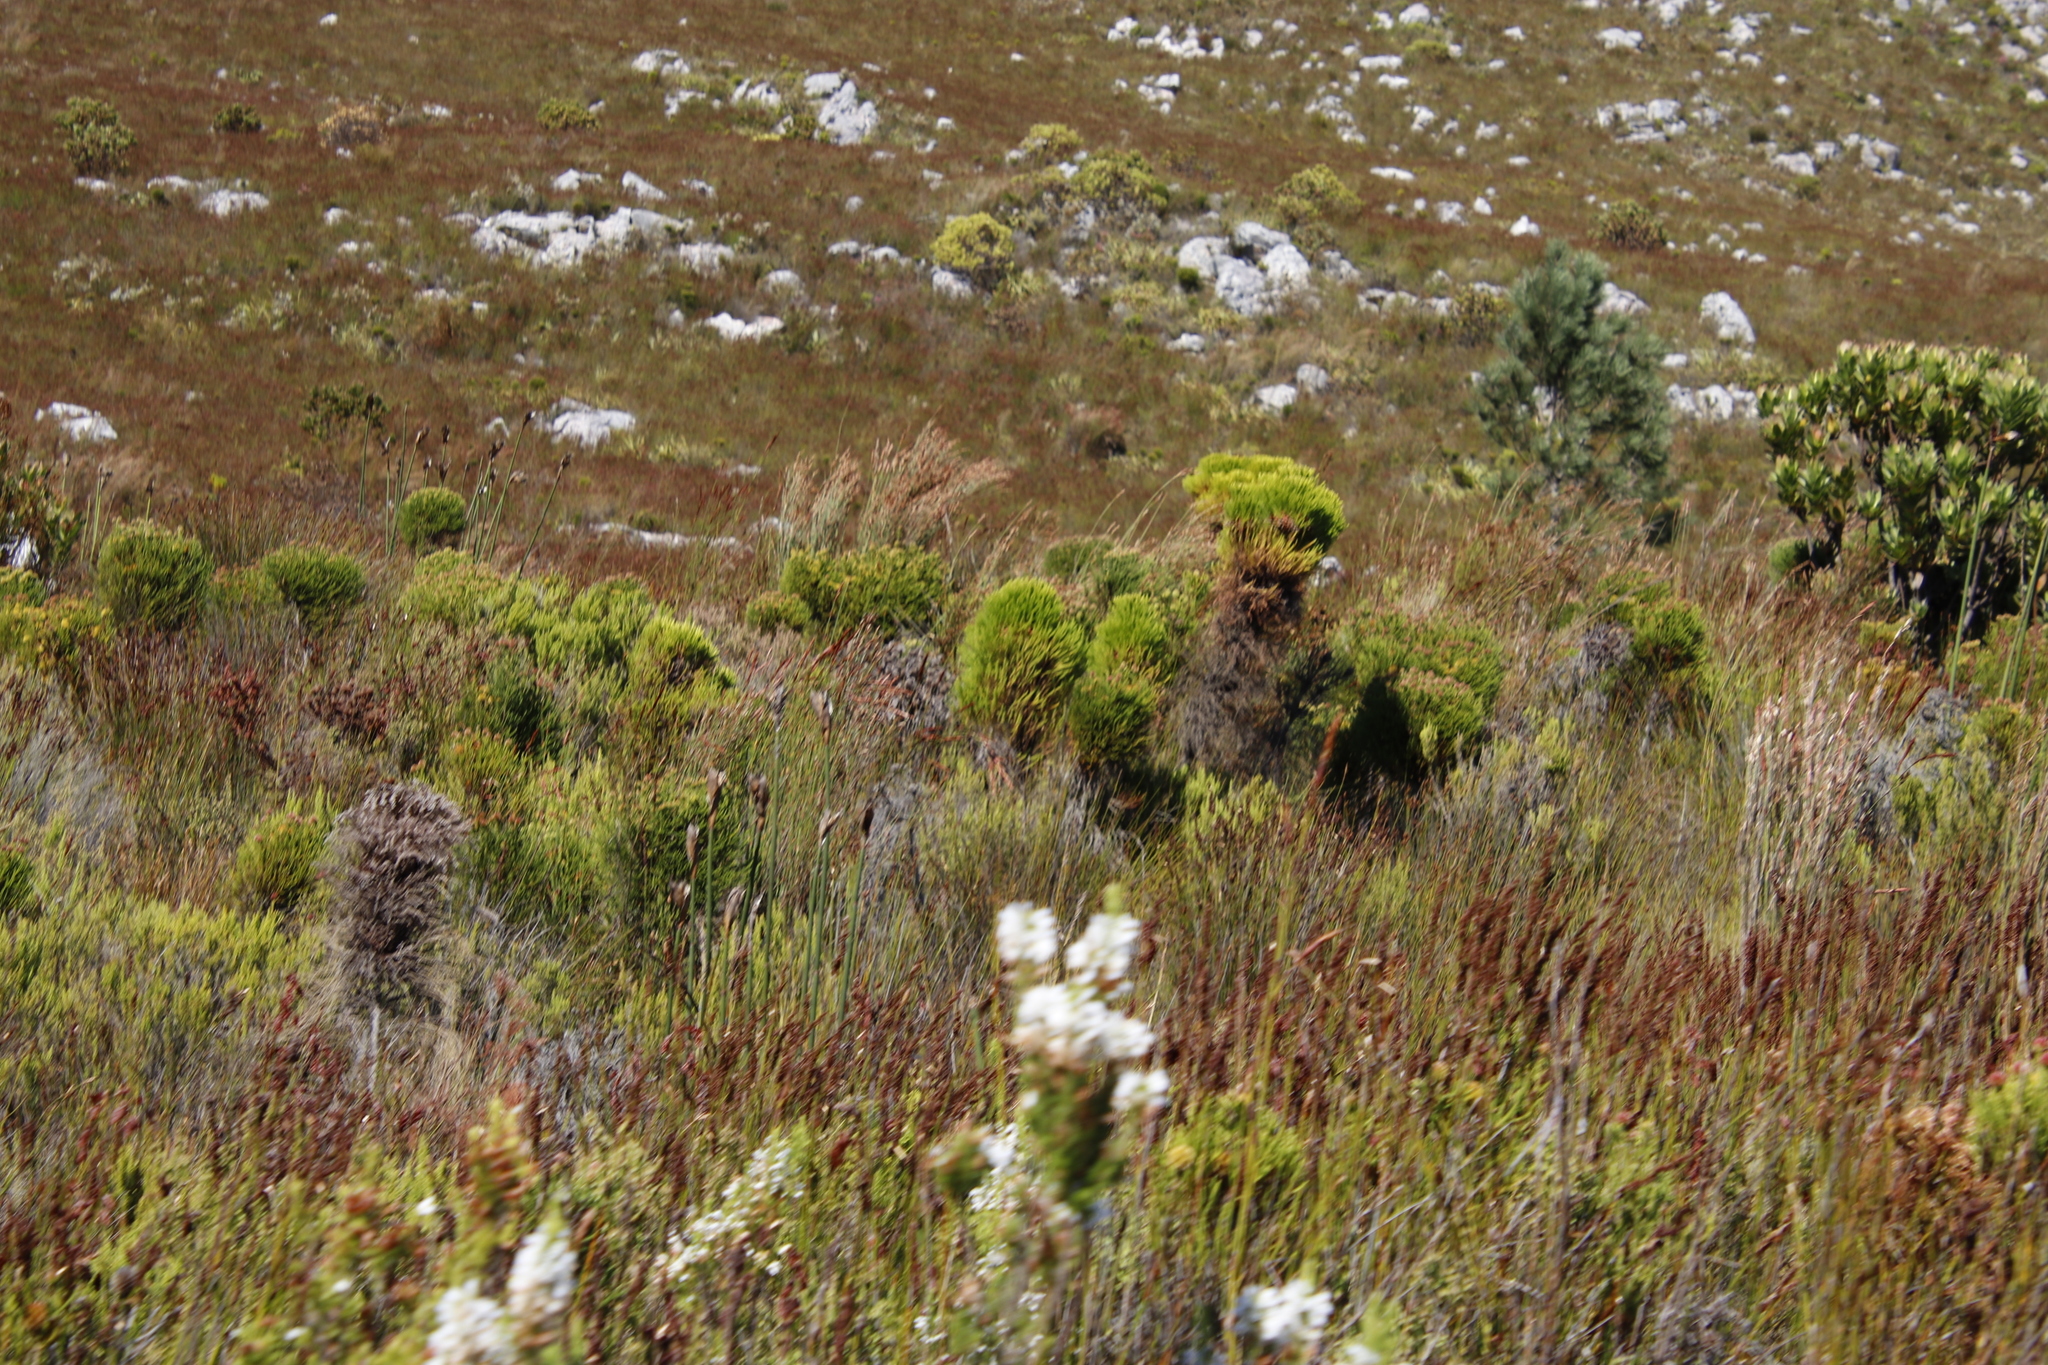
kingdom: Plantae
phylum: Tracheophyta
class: Magnoliopsida
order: Bruniales
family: Bruniaceae
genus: Berzelia
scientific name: Berzelia alopecurioides
